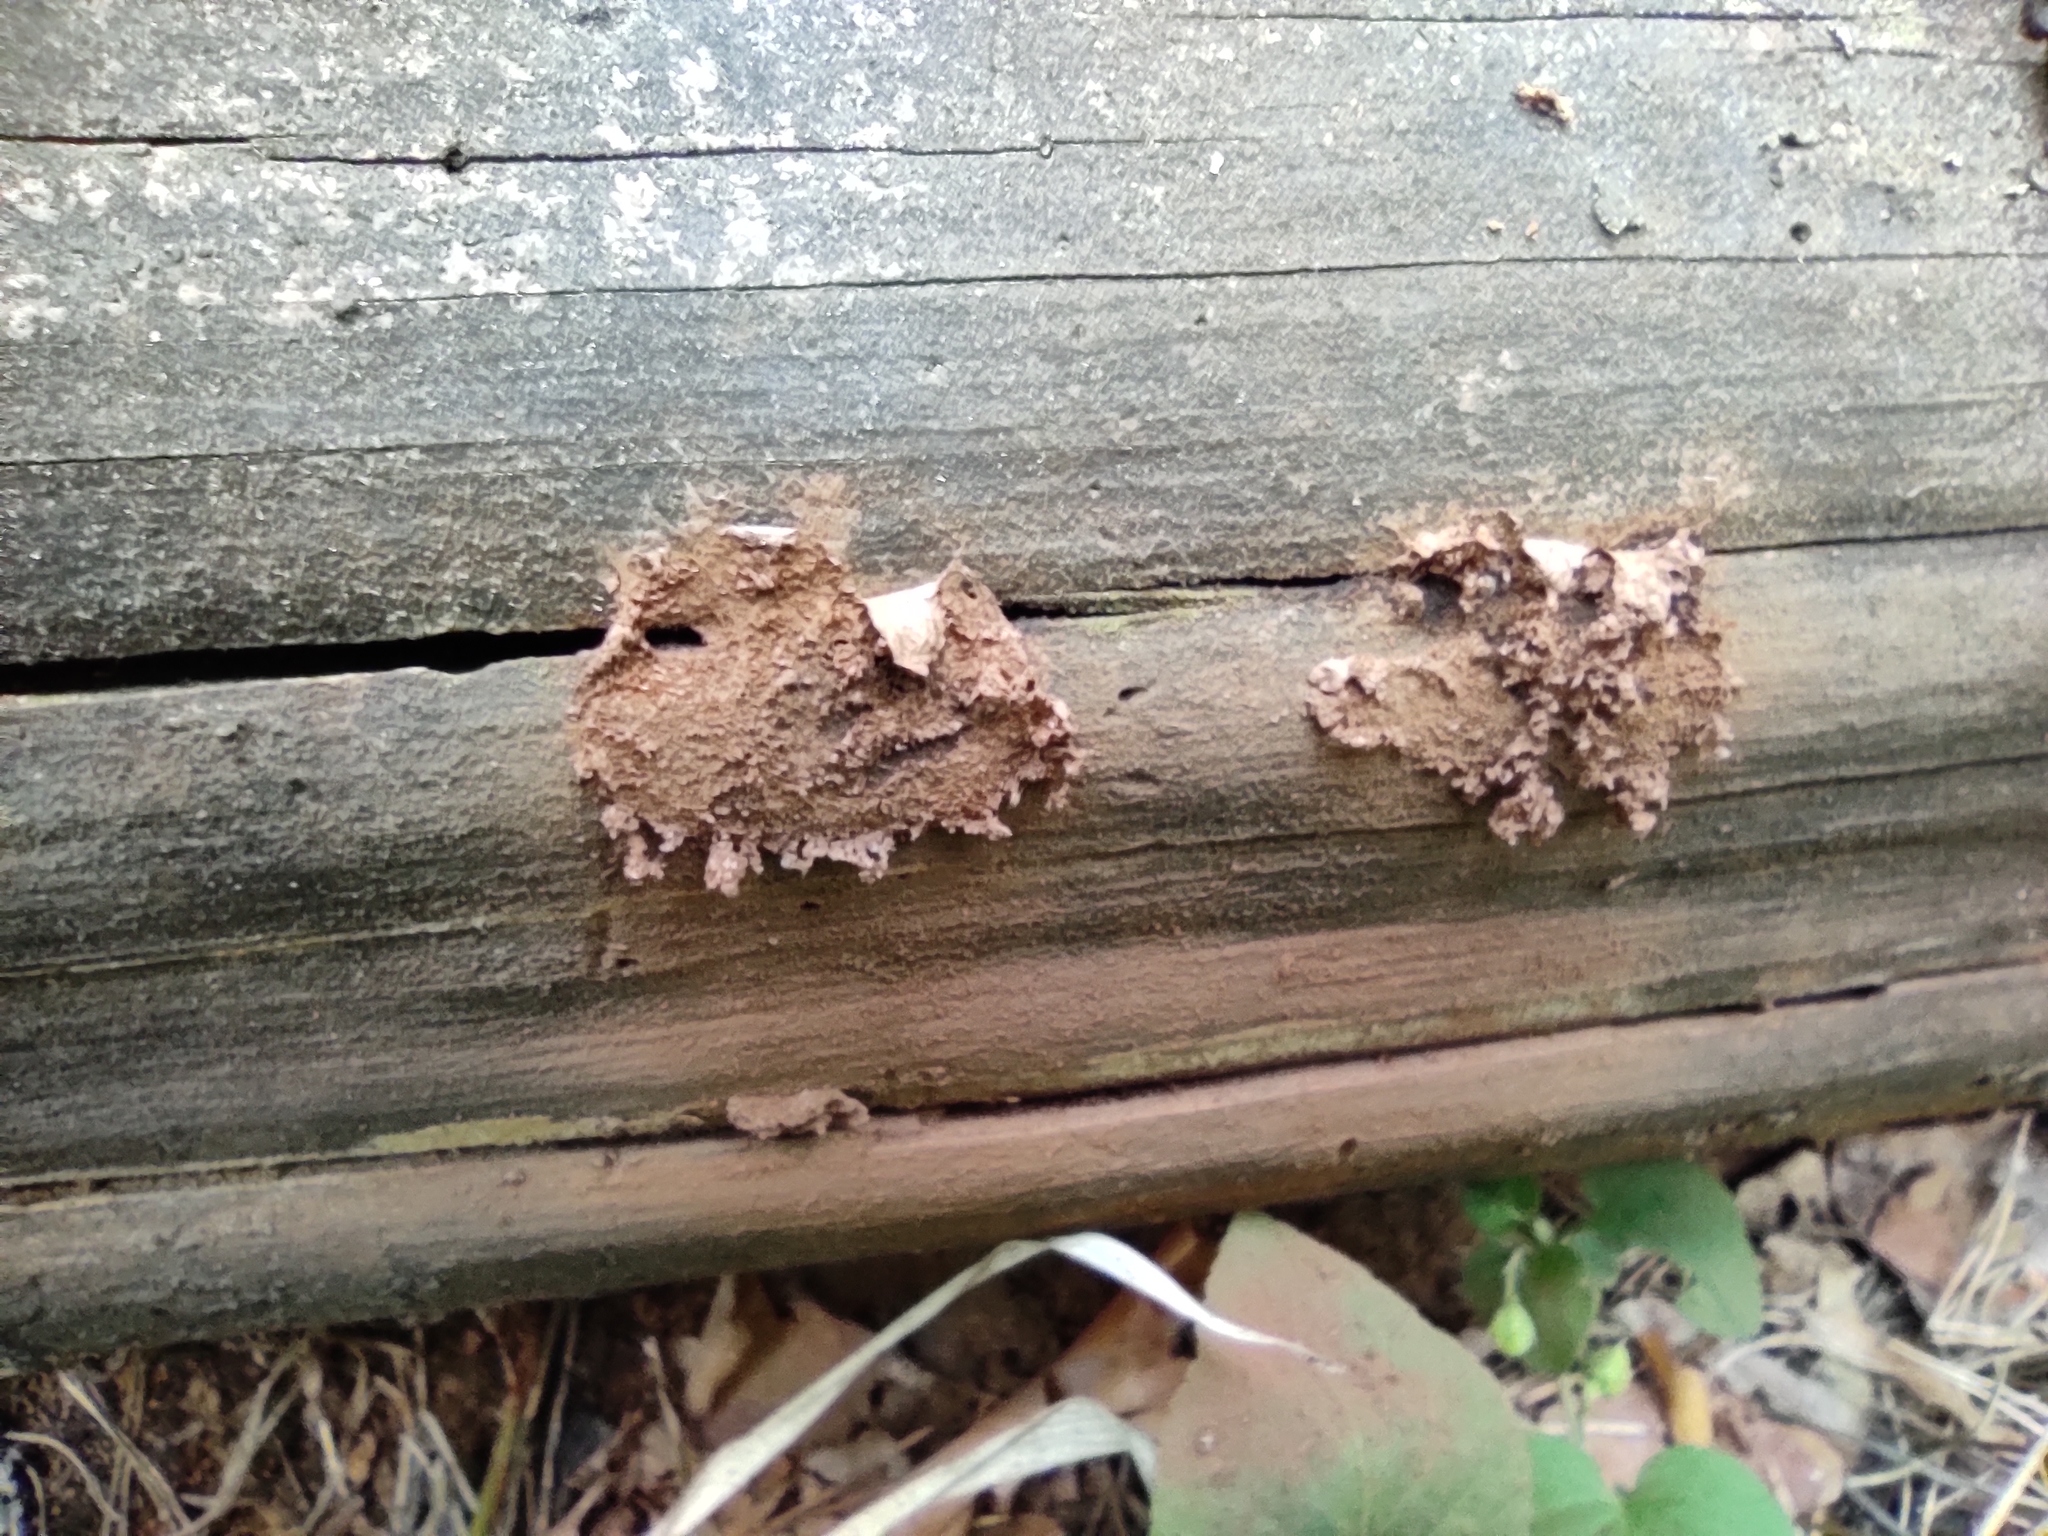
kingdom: Protozoa
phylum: Mycetozoa
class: Myxomycetes
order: Cribrariales
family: Cribrariaceae
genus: Lindbladia
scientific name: Lindbladia tubulina
